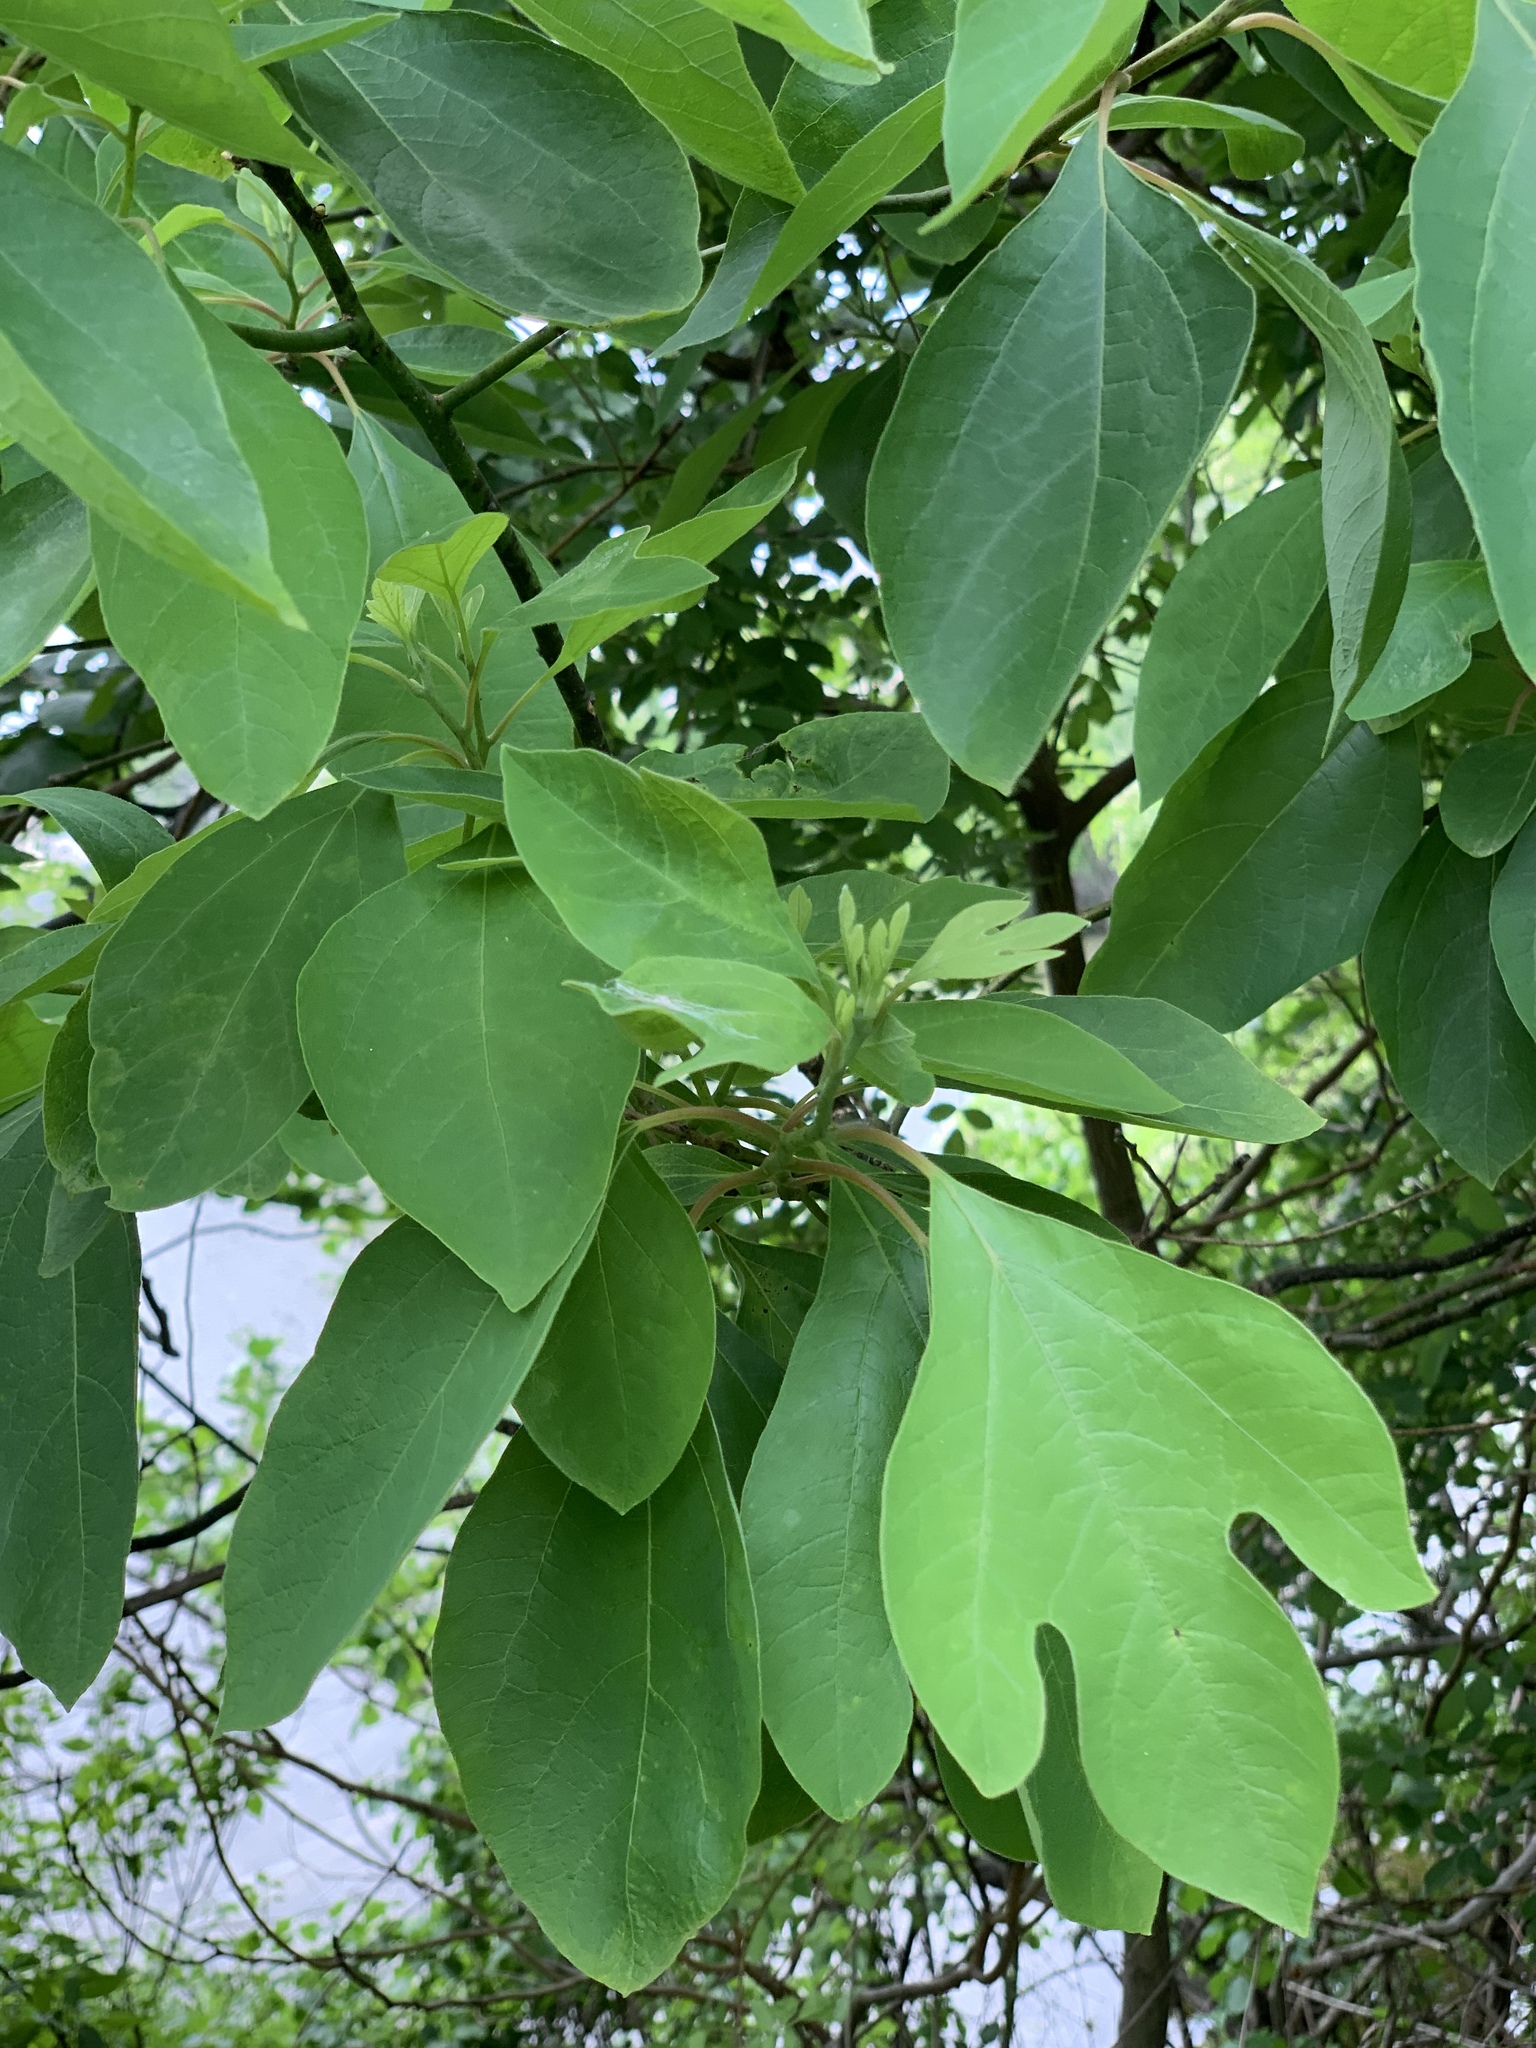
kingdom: Plantae
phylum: Tracheophyta
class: Magnoliopsida
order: Laurales
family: Lauraceae
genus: Sassafras
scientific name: Sassafras albidum
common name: Sassafras
